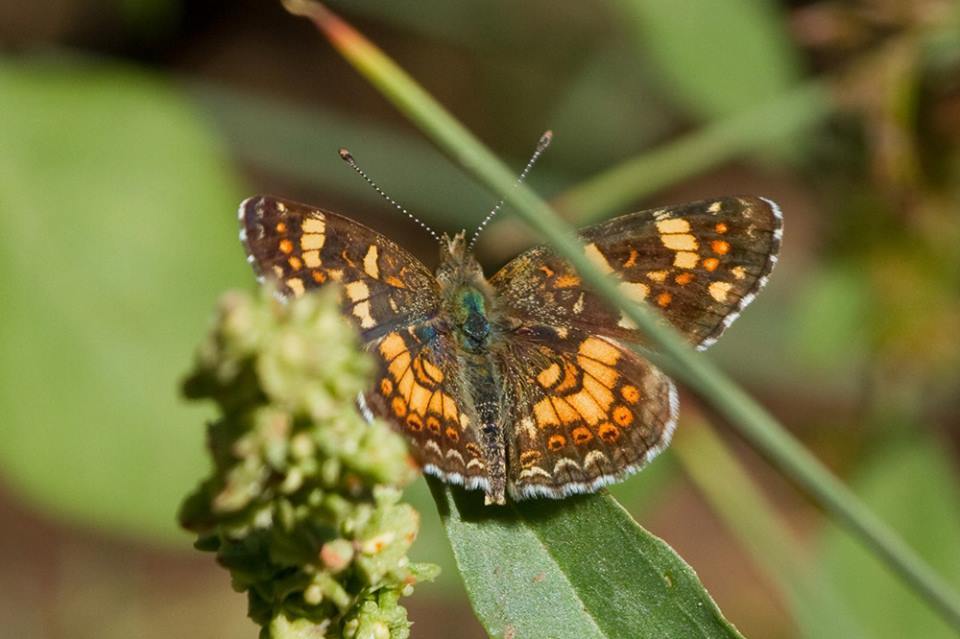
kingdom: Animalia
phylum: Arthropoda
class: Insecta
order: Lepidoptera
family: Nymphalidae
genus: Phyciodes
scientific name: Phyciodes tharos
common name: Pearl crescent
